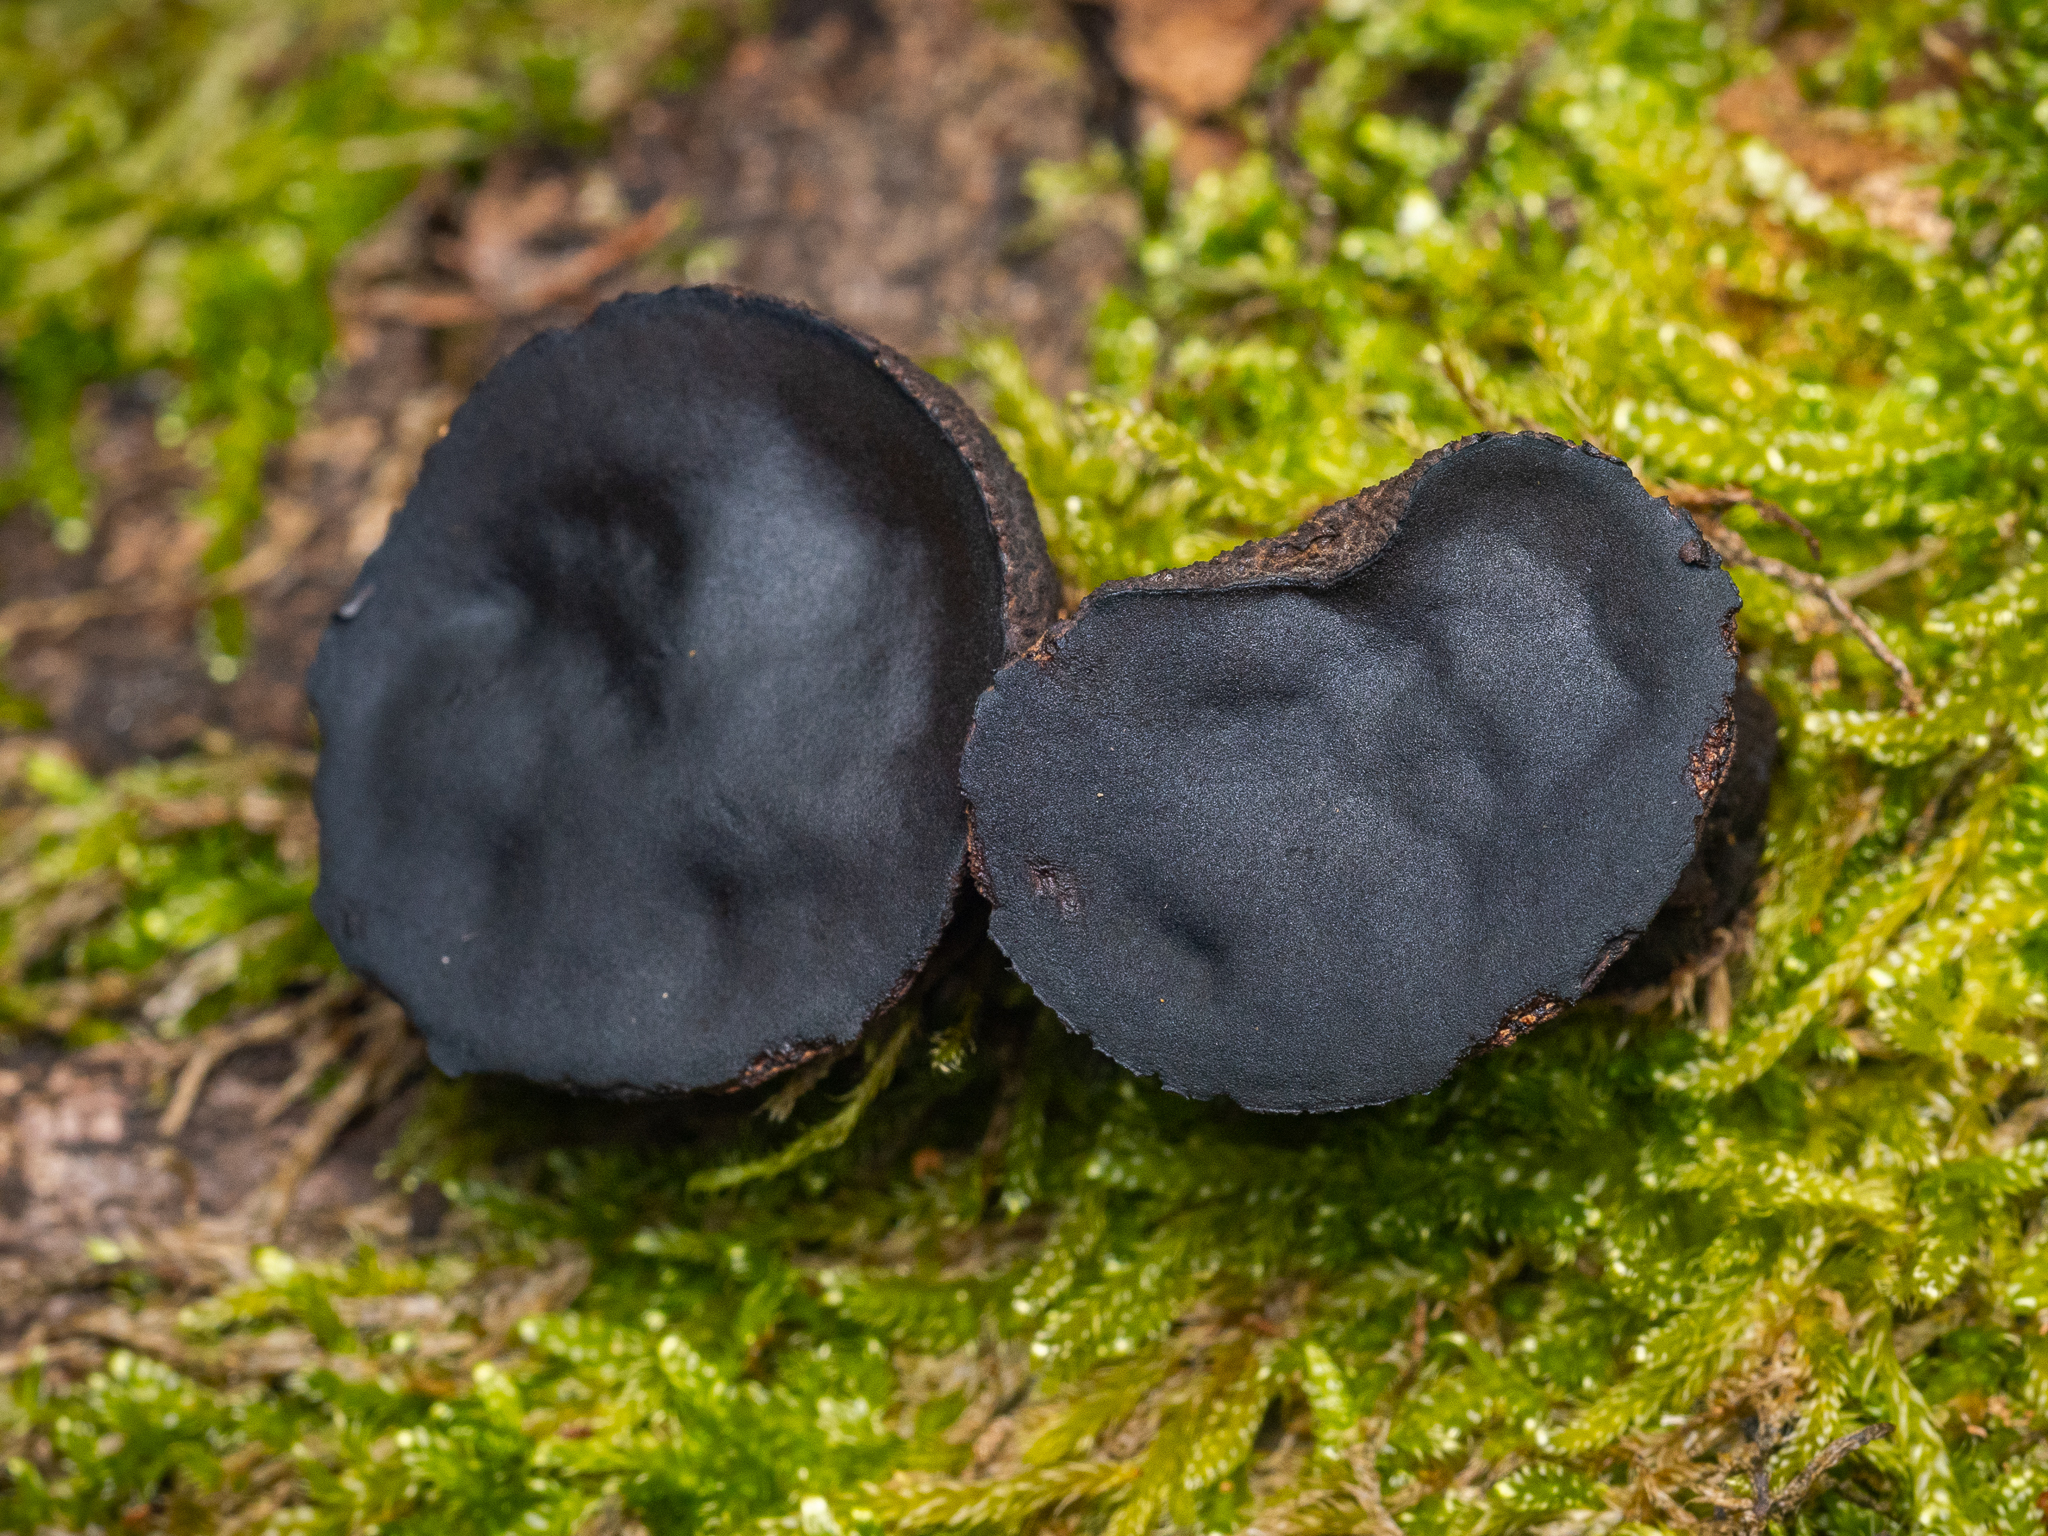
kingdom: Fungi
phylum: Ascomycota
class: Leotiomycetes
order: Phacidiales
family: Phacidiaceae
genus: Bulgaria
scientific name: Bulgaria inquinans
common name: Black bulgar
